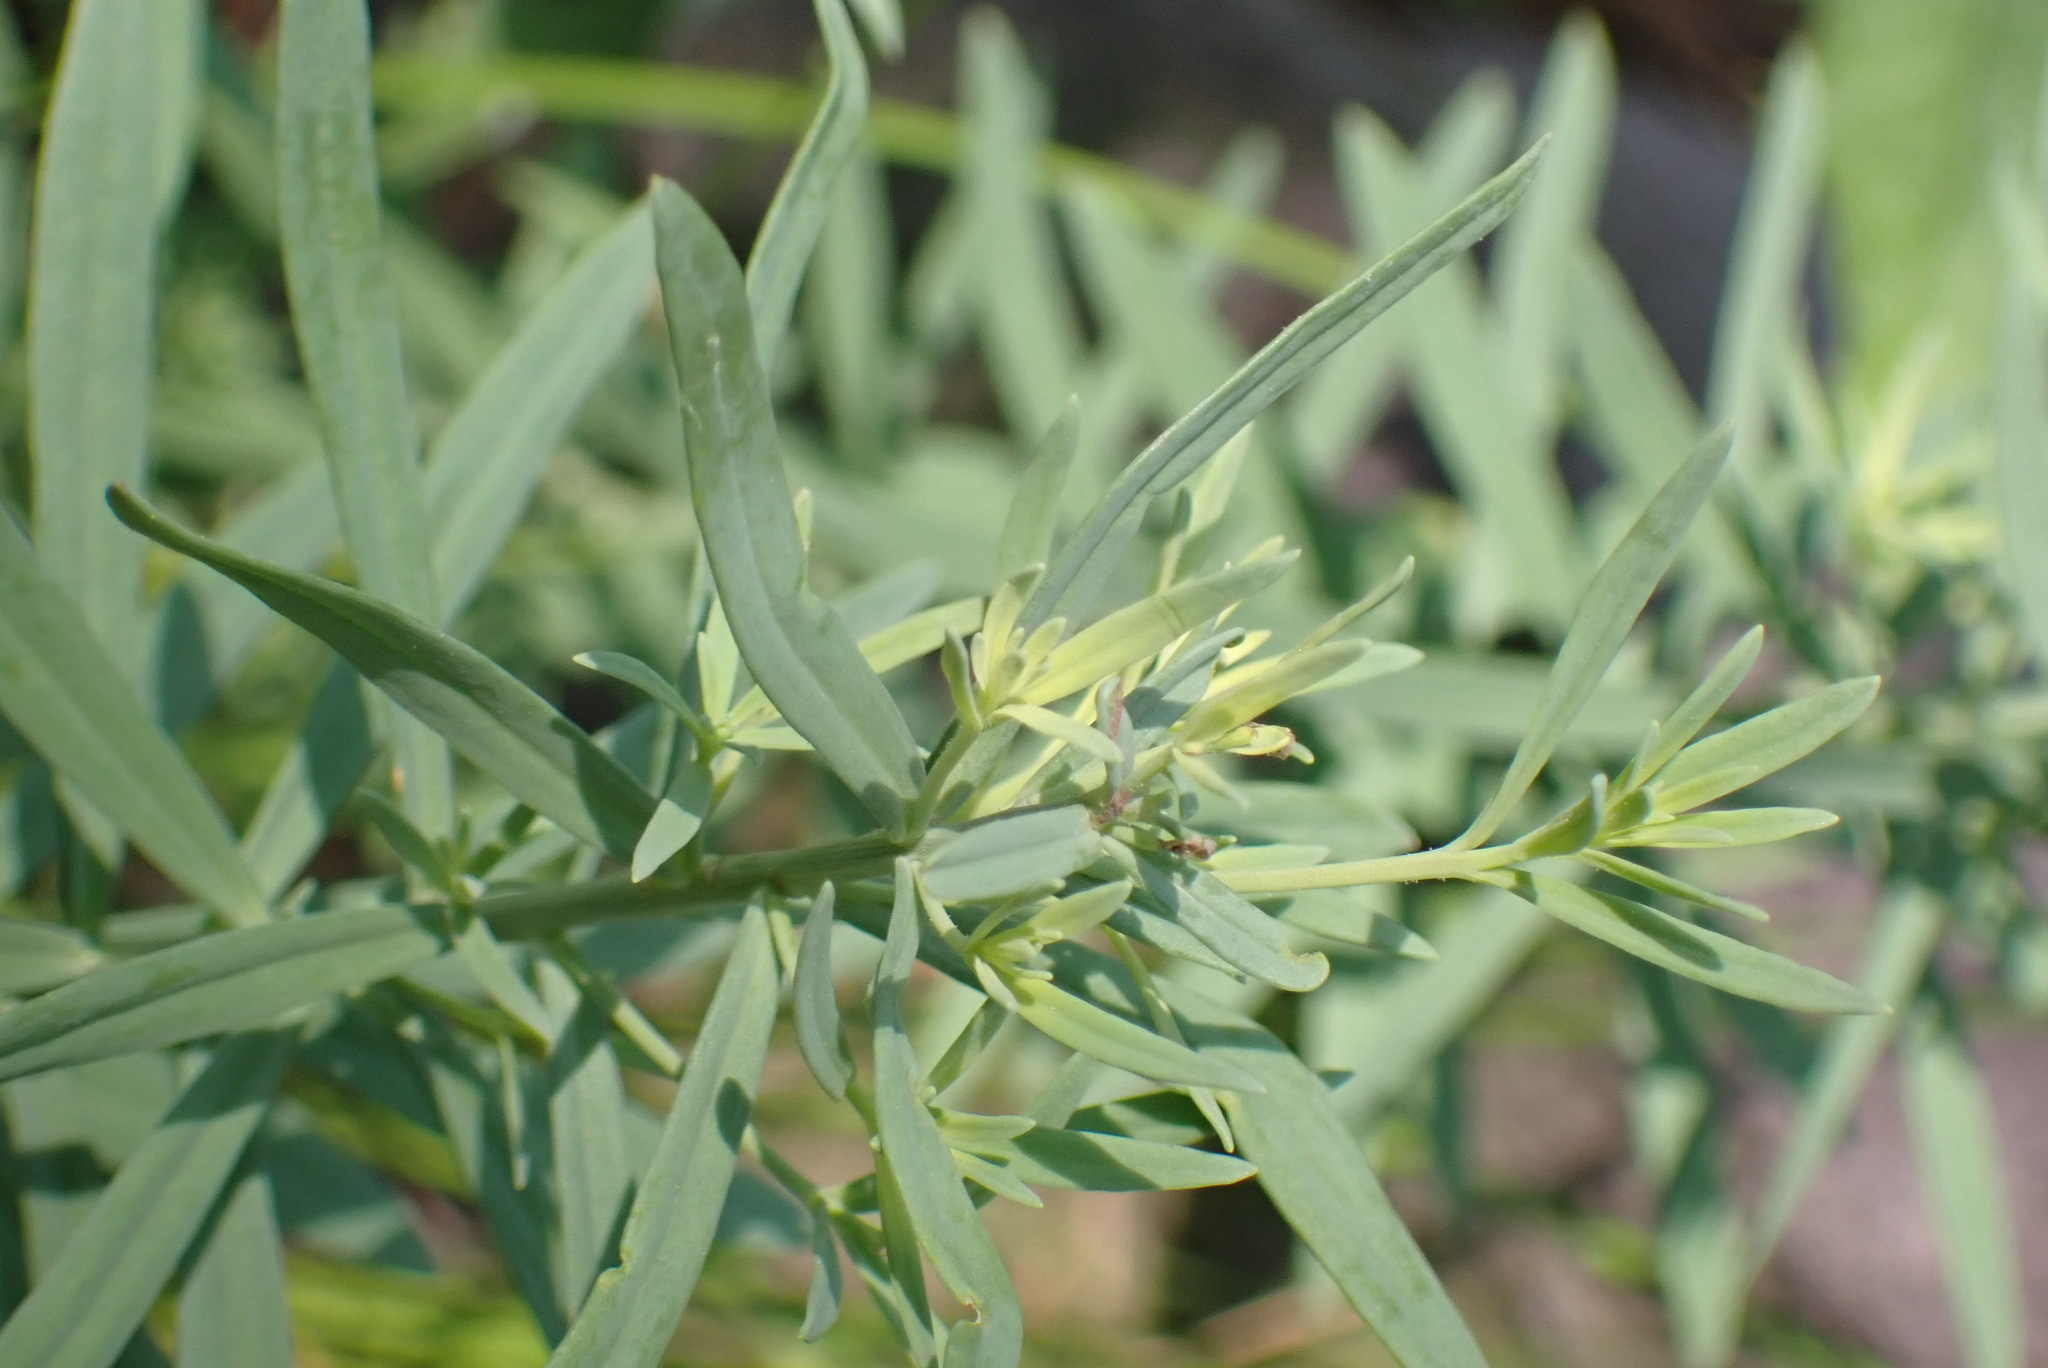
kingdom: Plantae
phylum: Tracheophyta
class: Magnoliopsida
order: Lamiales
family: Plantaginaceae
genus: Linaria
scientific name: Linaria vulgaris
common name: Butter and eggs
